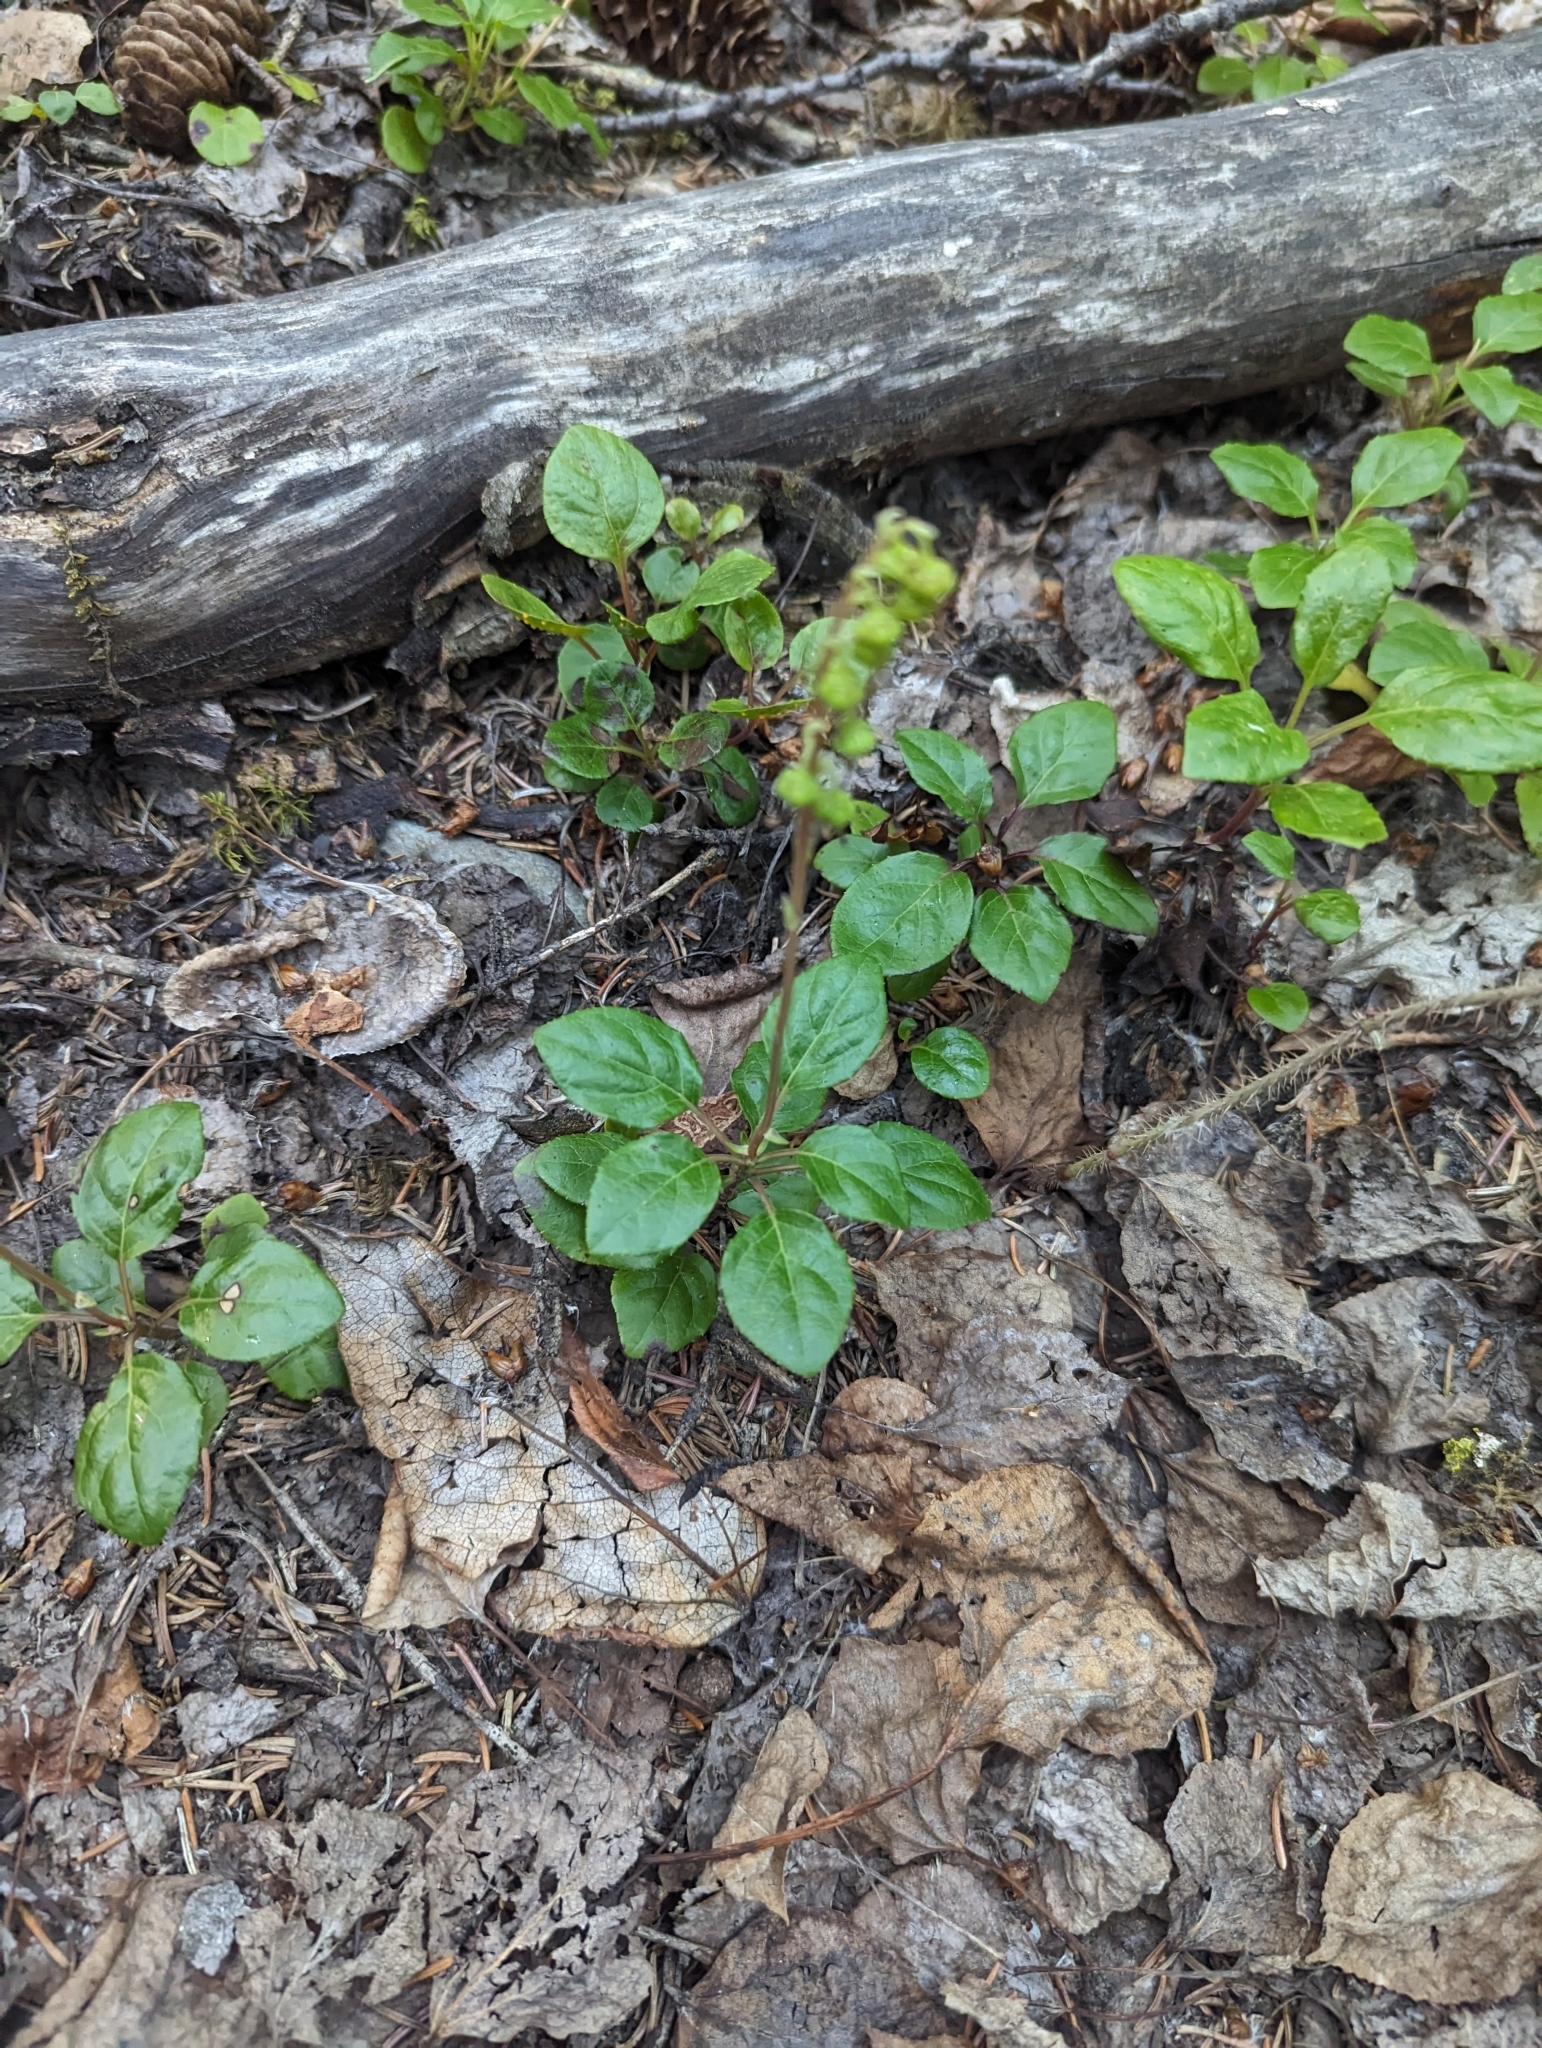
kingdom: Plantae
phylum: Tracheophyta
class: Magnoliopsida
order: Ericales
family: Ericaceae
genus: Orthilia
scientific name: Orthilia secunda
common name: One-sided orthilia
